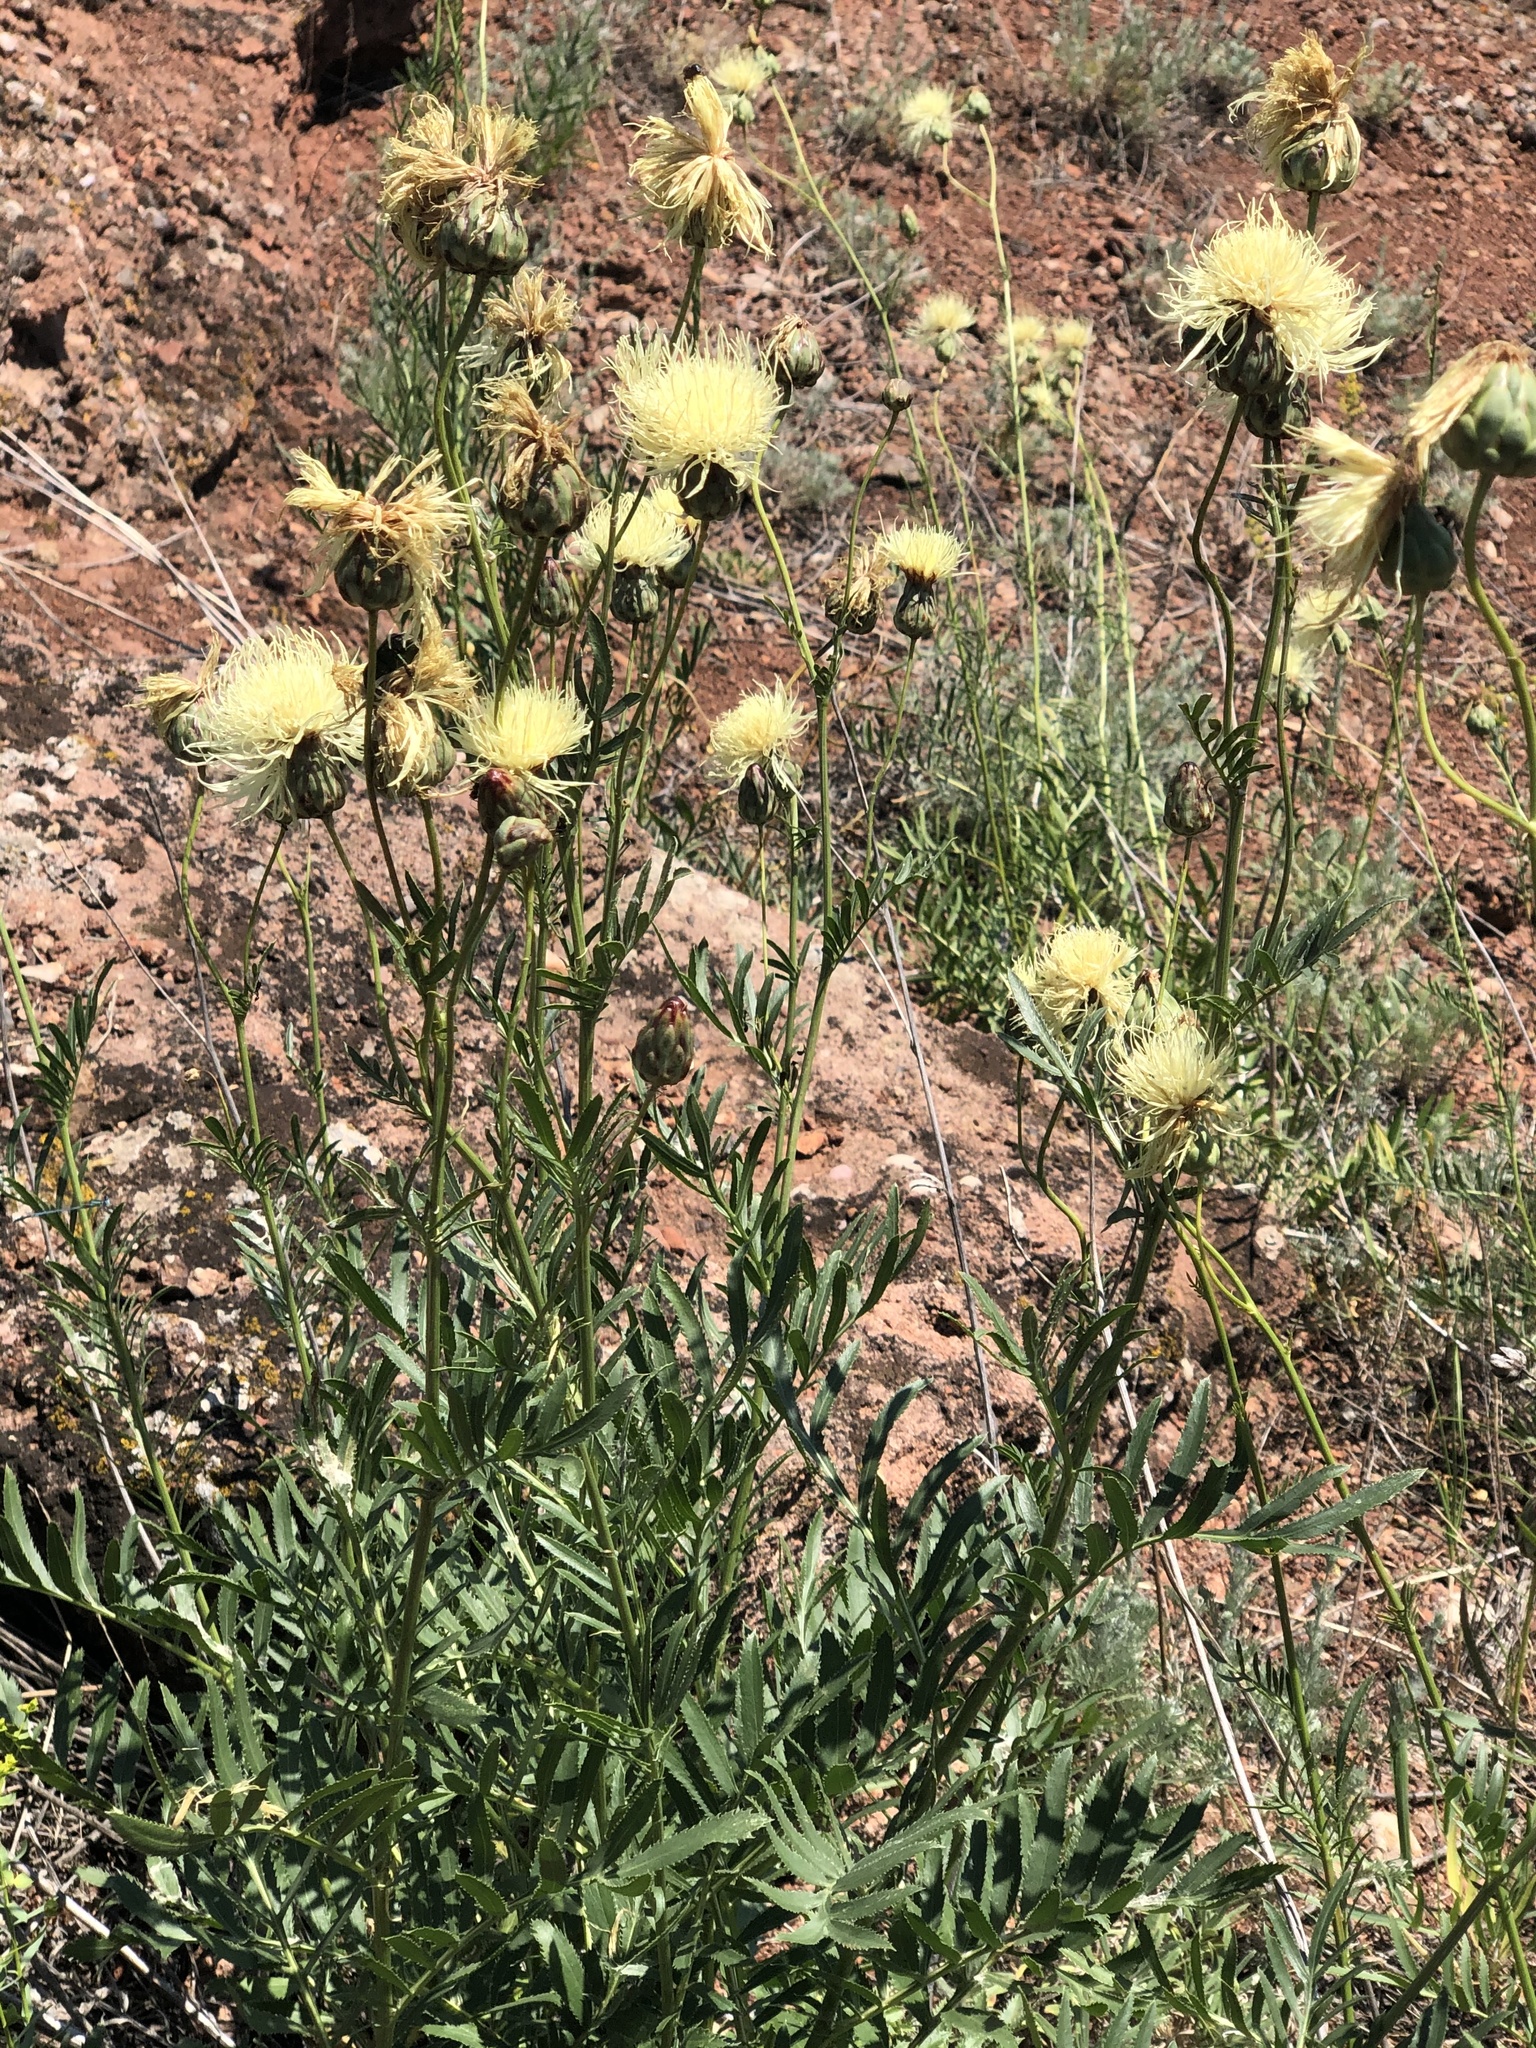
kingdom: Plantae
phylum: Tracheophyta
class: Magnoliopsida
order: Asterales
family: Asteraceae
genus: Rhaponticoides
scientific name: Rhaponticoides ruthenica
